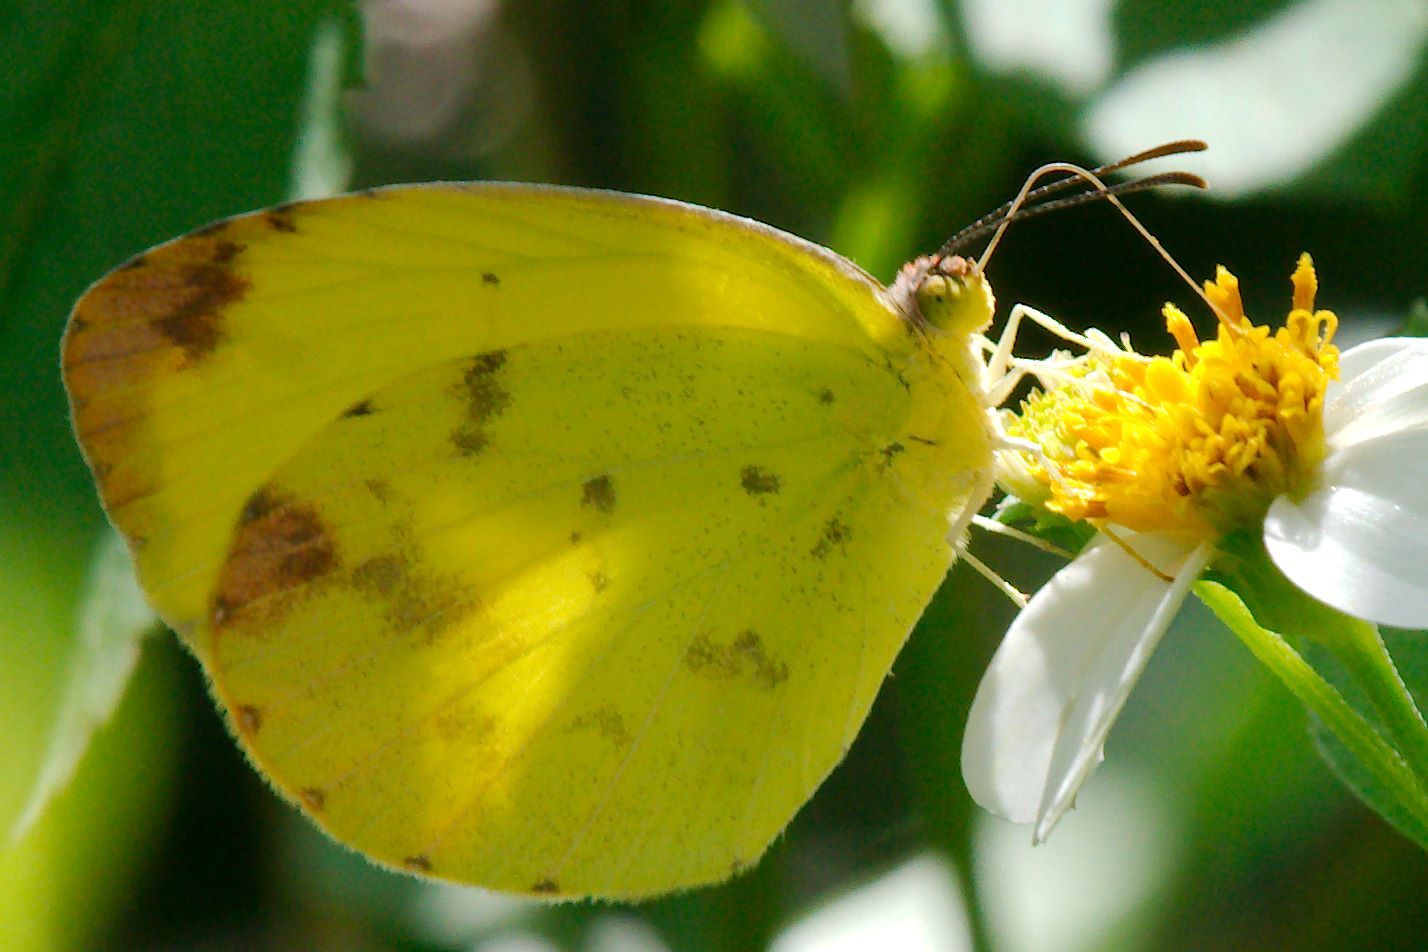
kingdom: Animalia
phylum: Arthropoda
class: Insecta
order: Lepidoptera
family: Pieridae
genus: Pyrisitia
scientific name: Pyrisitia dina
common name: Dina yellow
